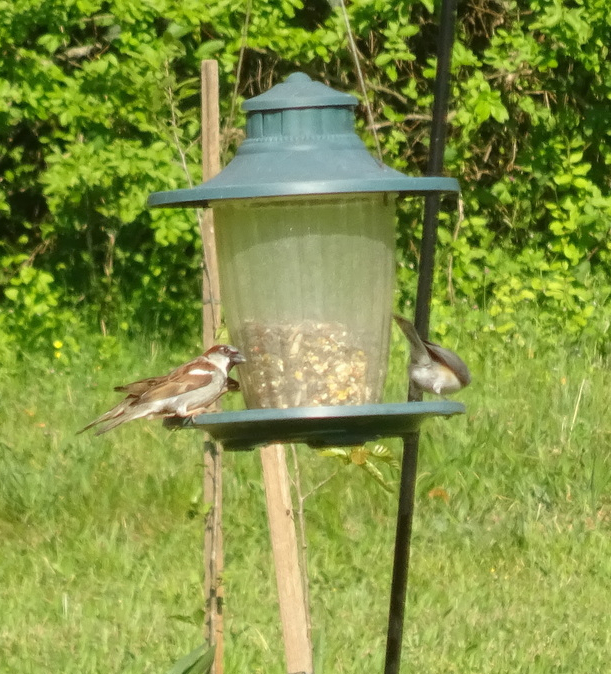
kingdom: Animalia
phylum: Chordata
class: Aves
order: Passeriformes
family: Paridae
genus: Baeolophus
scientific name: Baeolophus bicolor
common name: Tufted titmouse
